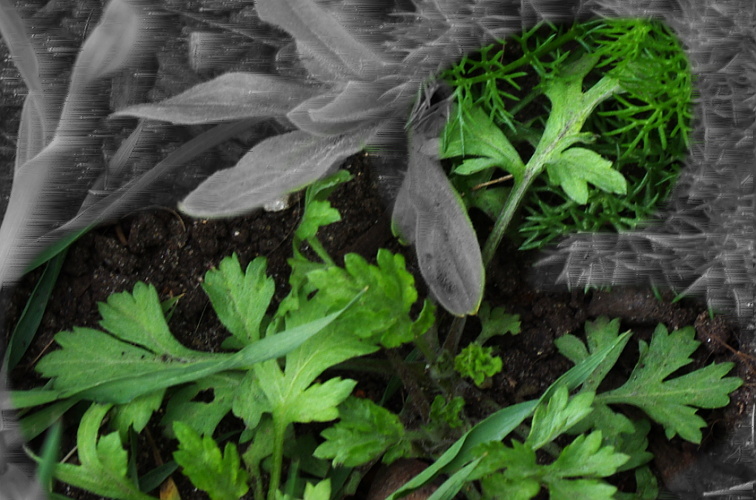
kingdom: Plantae
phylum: Tracheophyta
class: Magnoliopsida
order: Asterales
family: Asteraceae
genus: Artemisia
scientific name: Artemisia vulgaris
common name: Mugwort
